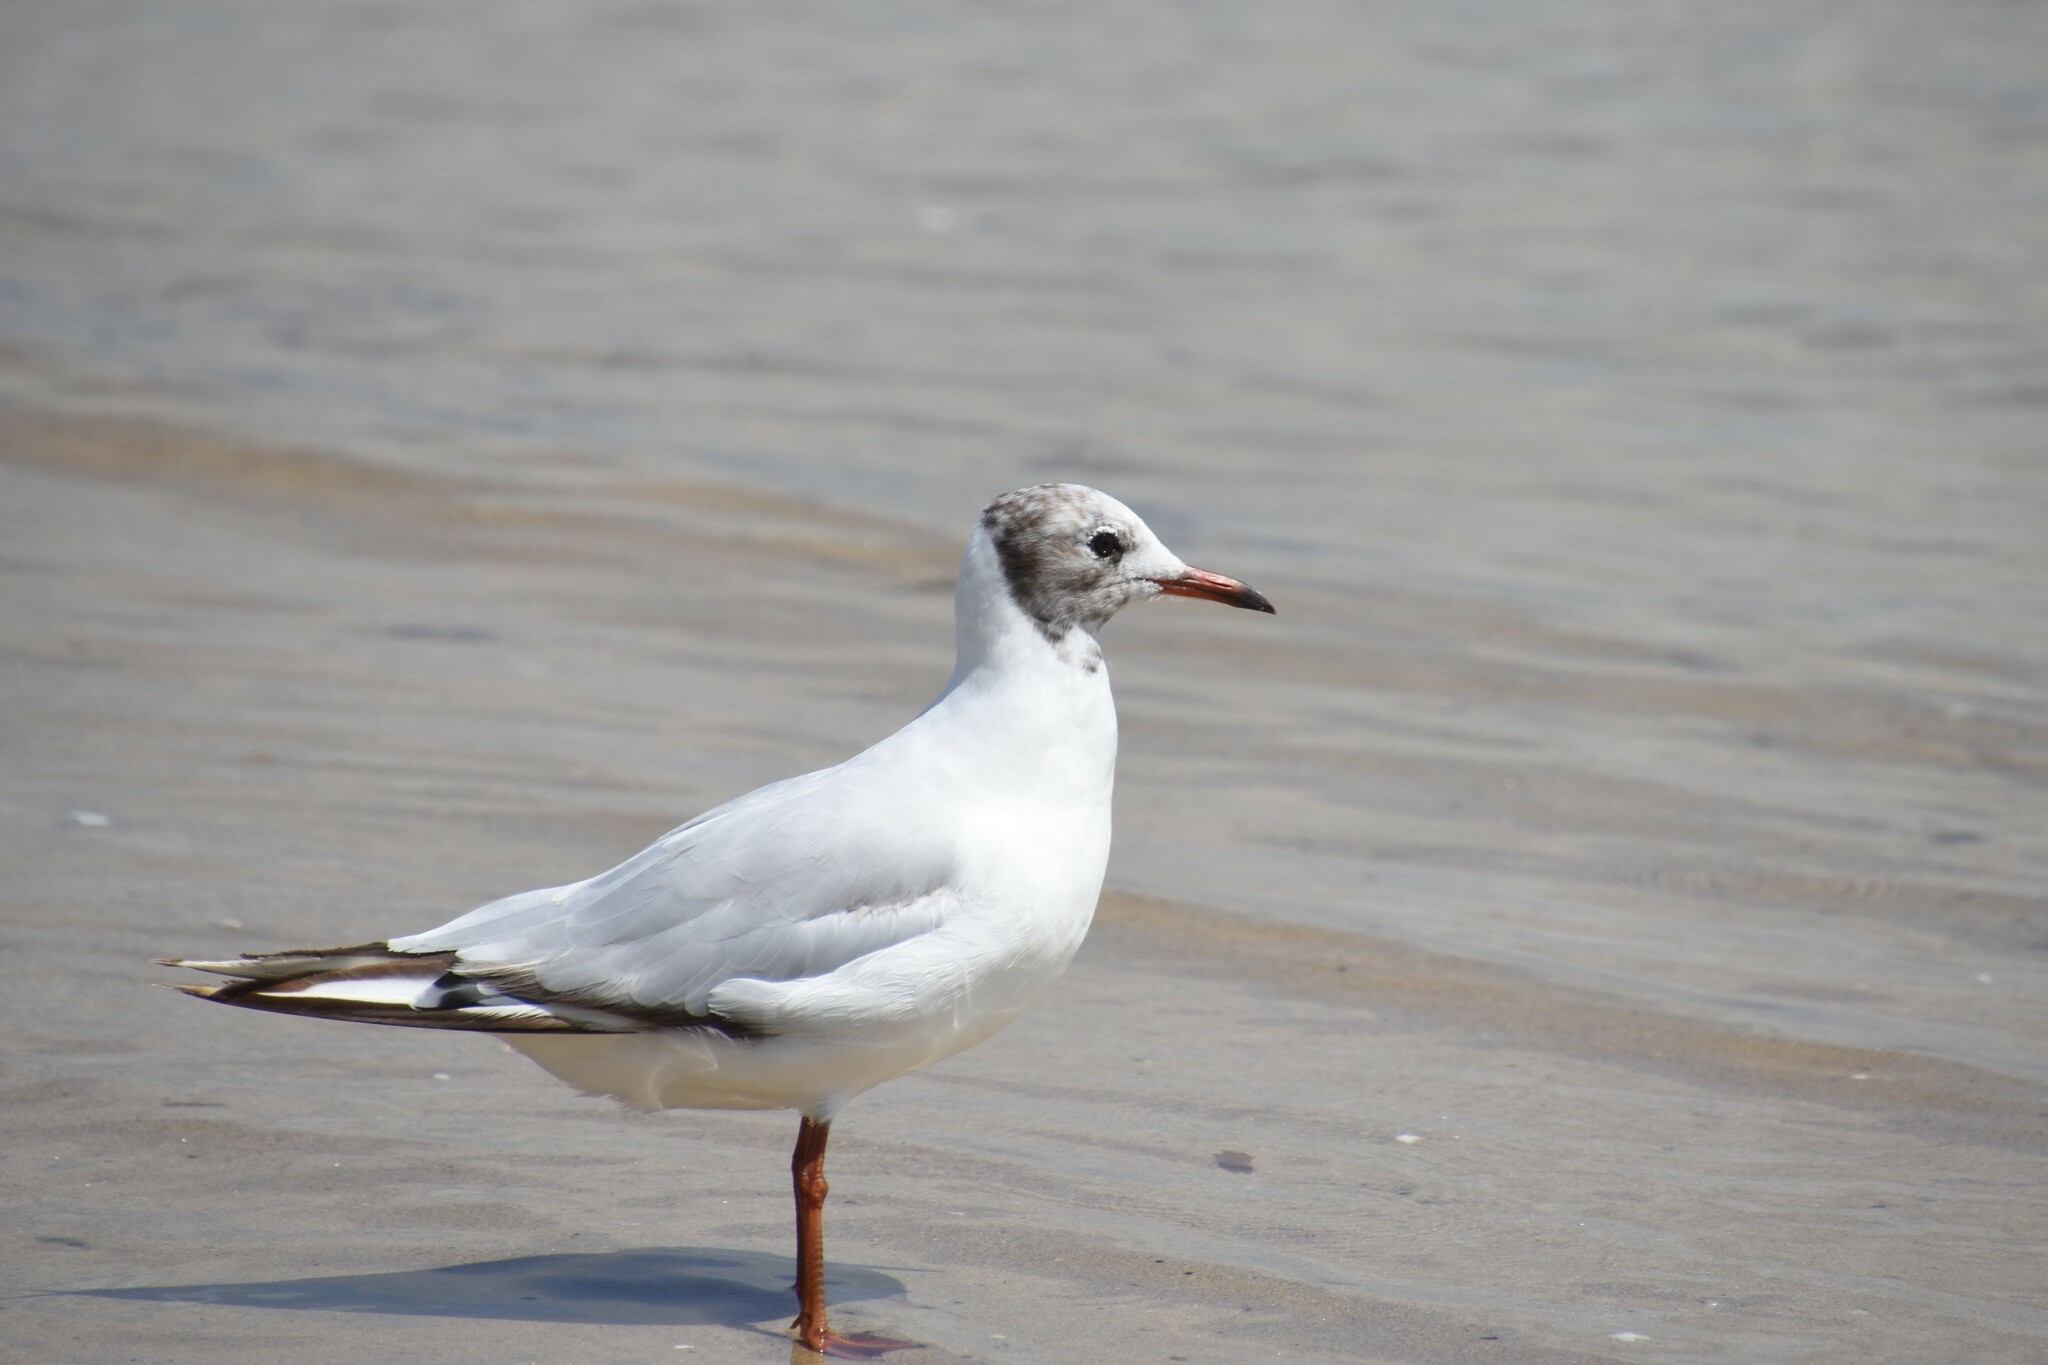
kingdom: Animalia
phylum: Chordata
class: Aves
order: Charadriiformes
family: Laridae
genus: Chroicocephalus
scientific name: Chroicocephalus ridibundus
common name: Black-headed gull
